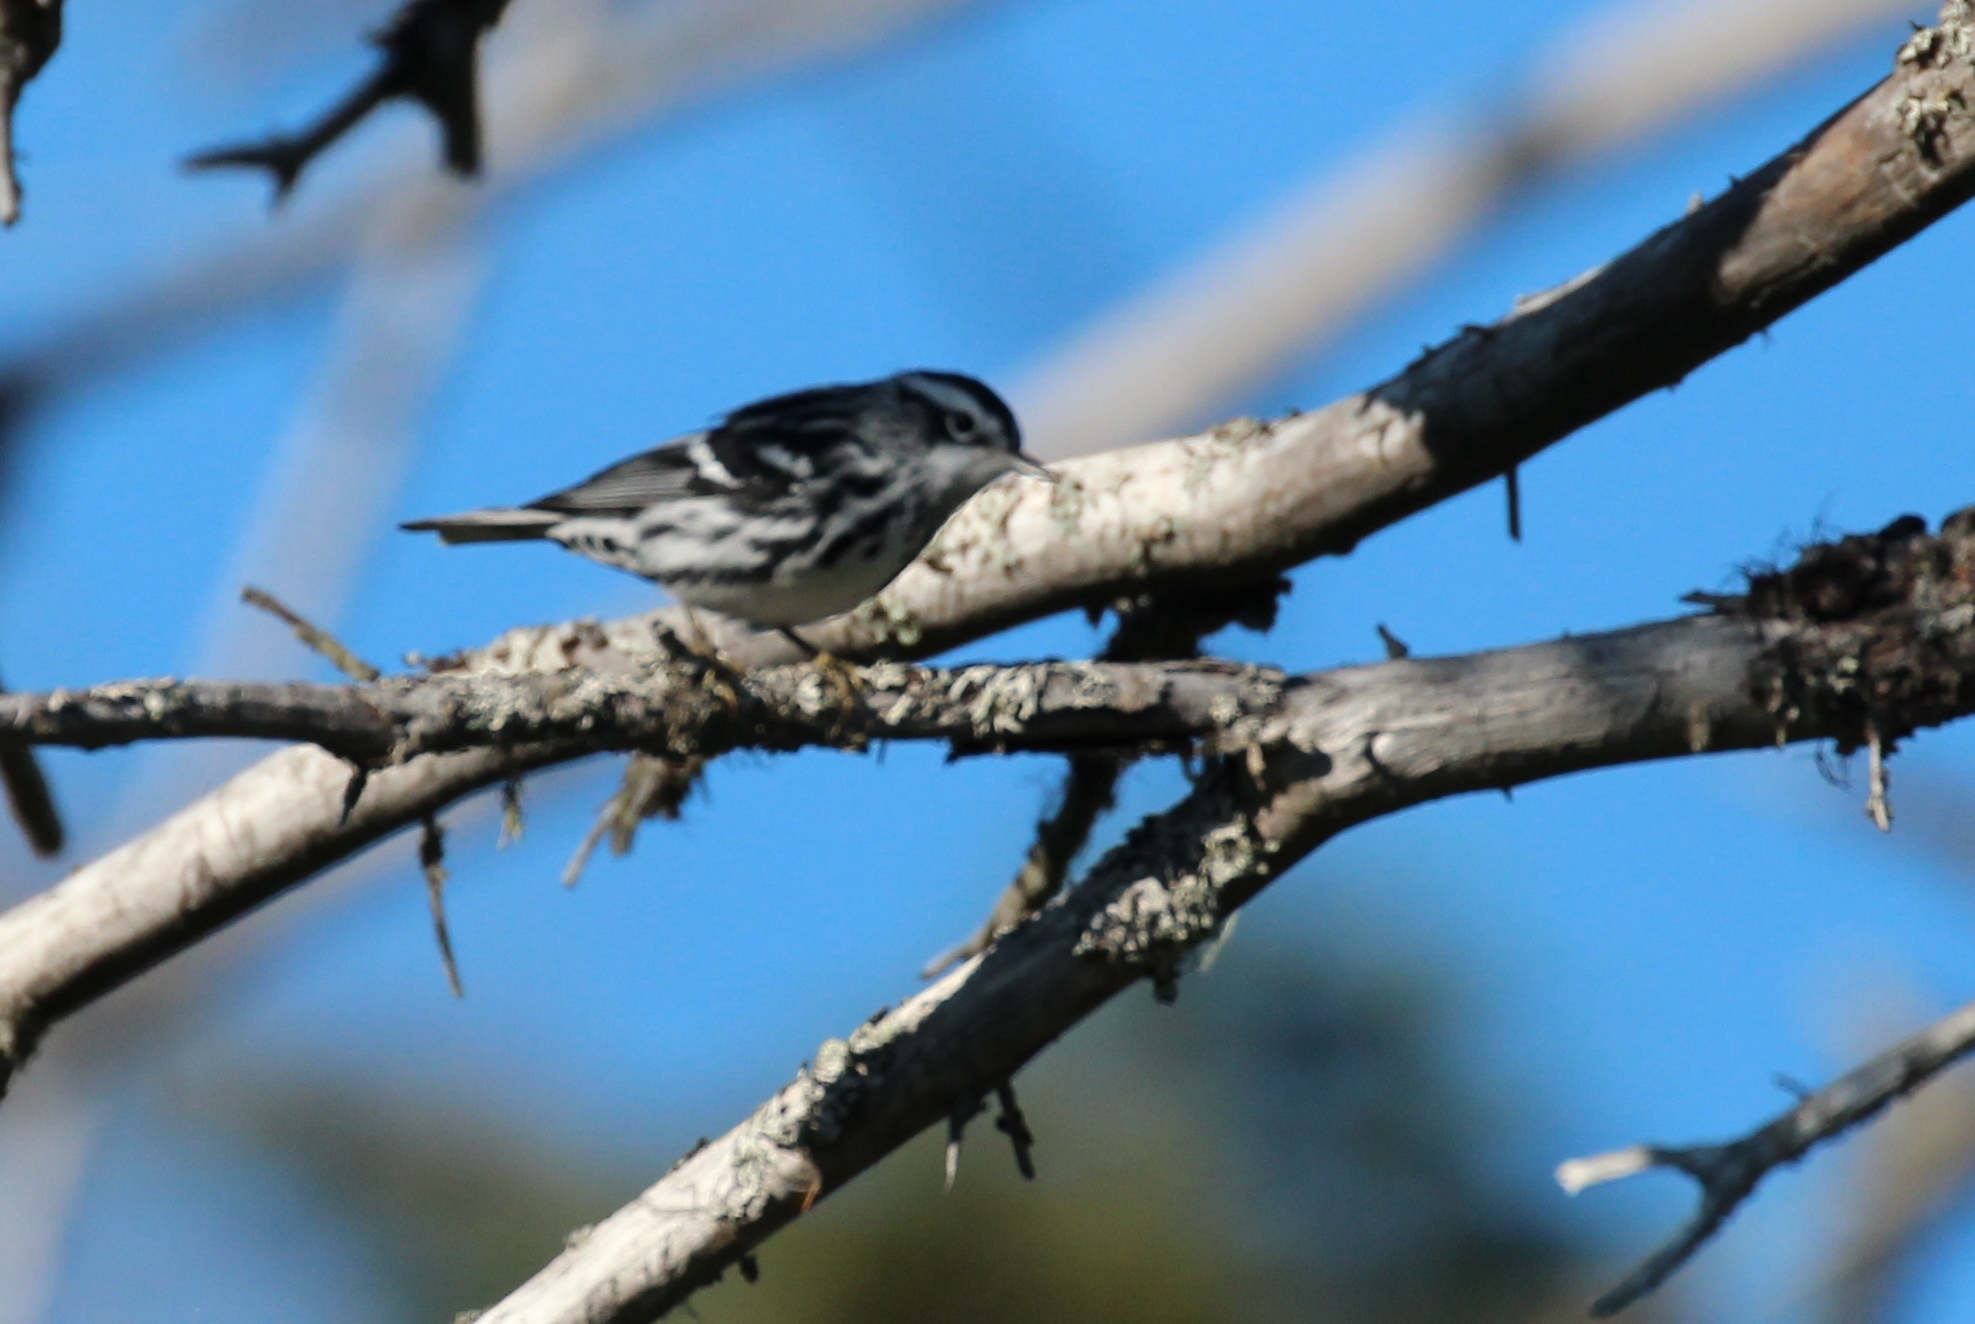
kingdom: Animalia
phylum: Chordata
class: Aves
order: Passeriformes
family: Parulidae
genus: Mniotilta
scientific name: Mniotilta varia
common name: Black-and-white warbler
